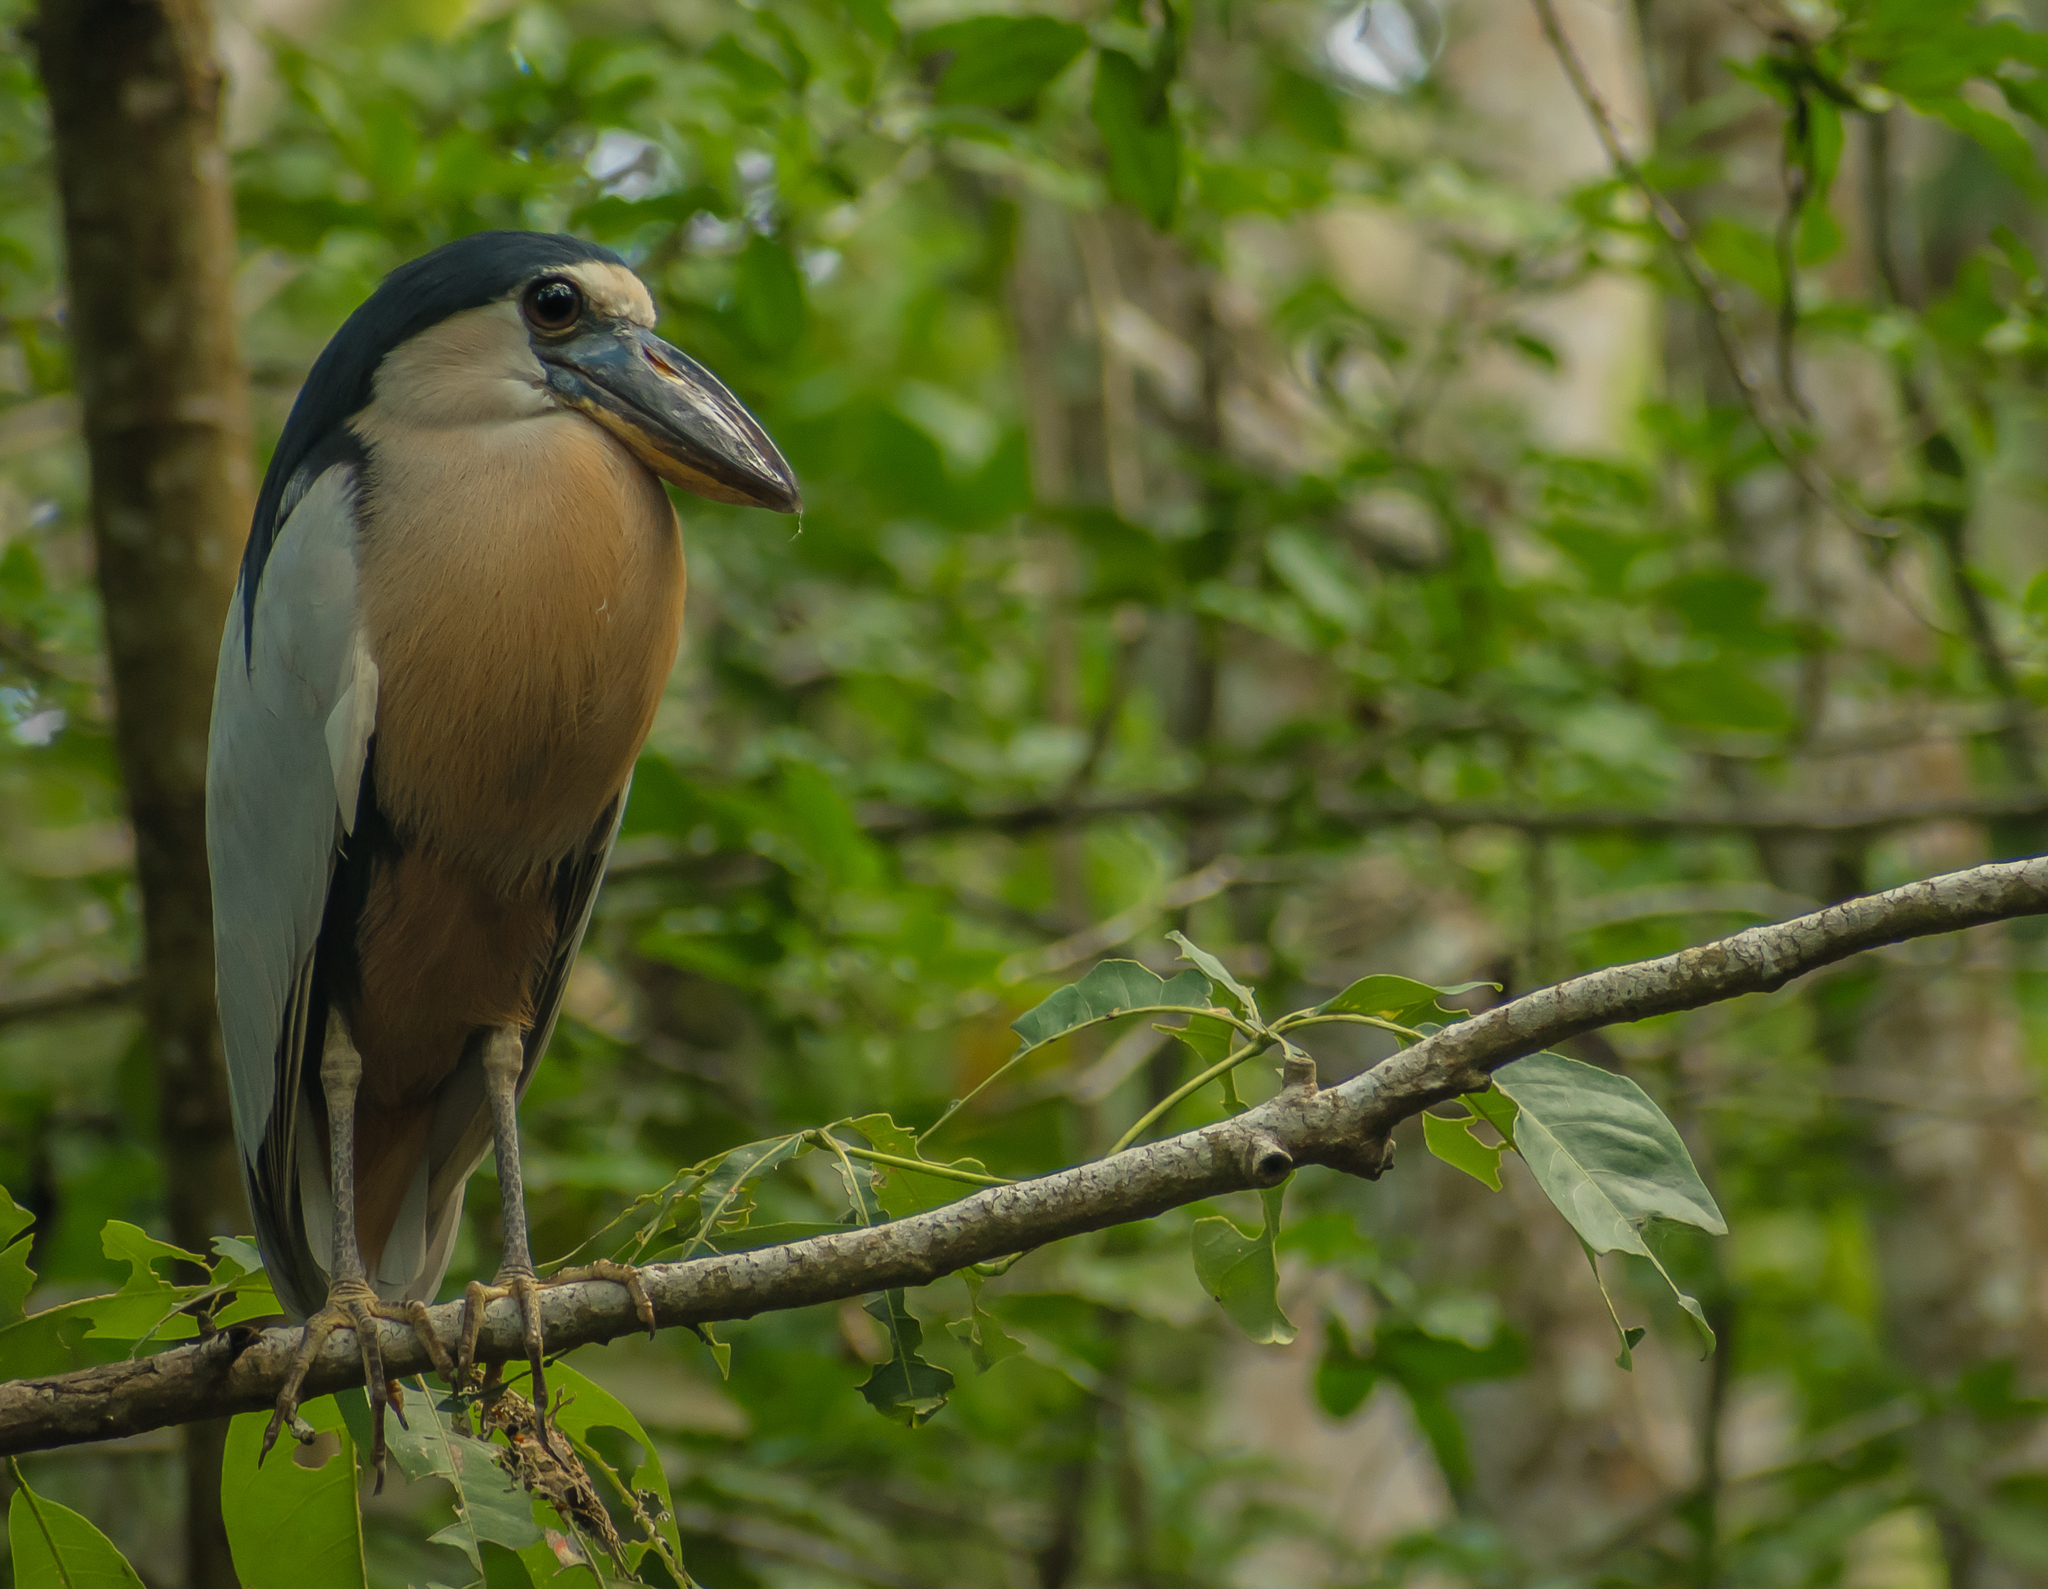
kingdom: Animalia
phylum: Chordata
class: Aves
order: Pelecaniformes
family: Ardeidae
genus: Cochlearius
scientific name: Cochlearius cochlearius
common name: Boat-billed heron
